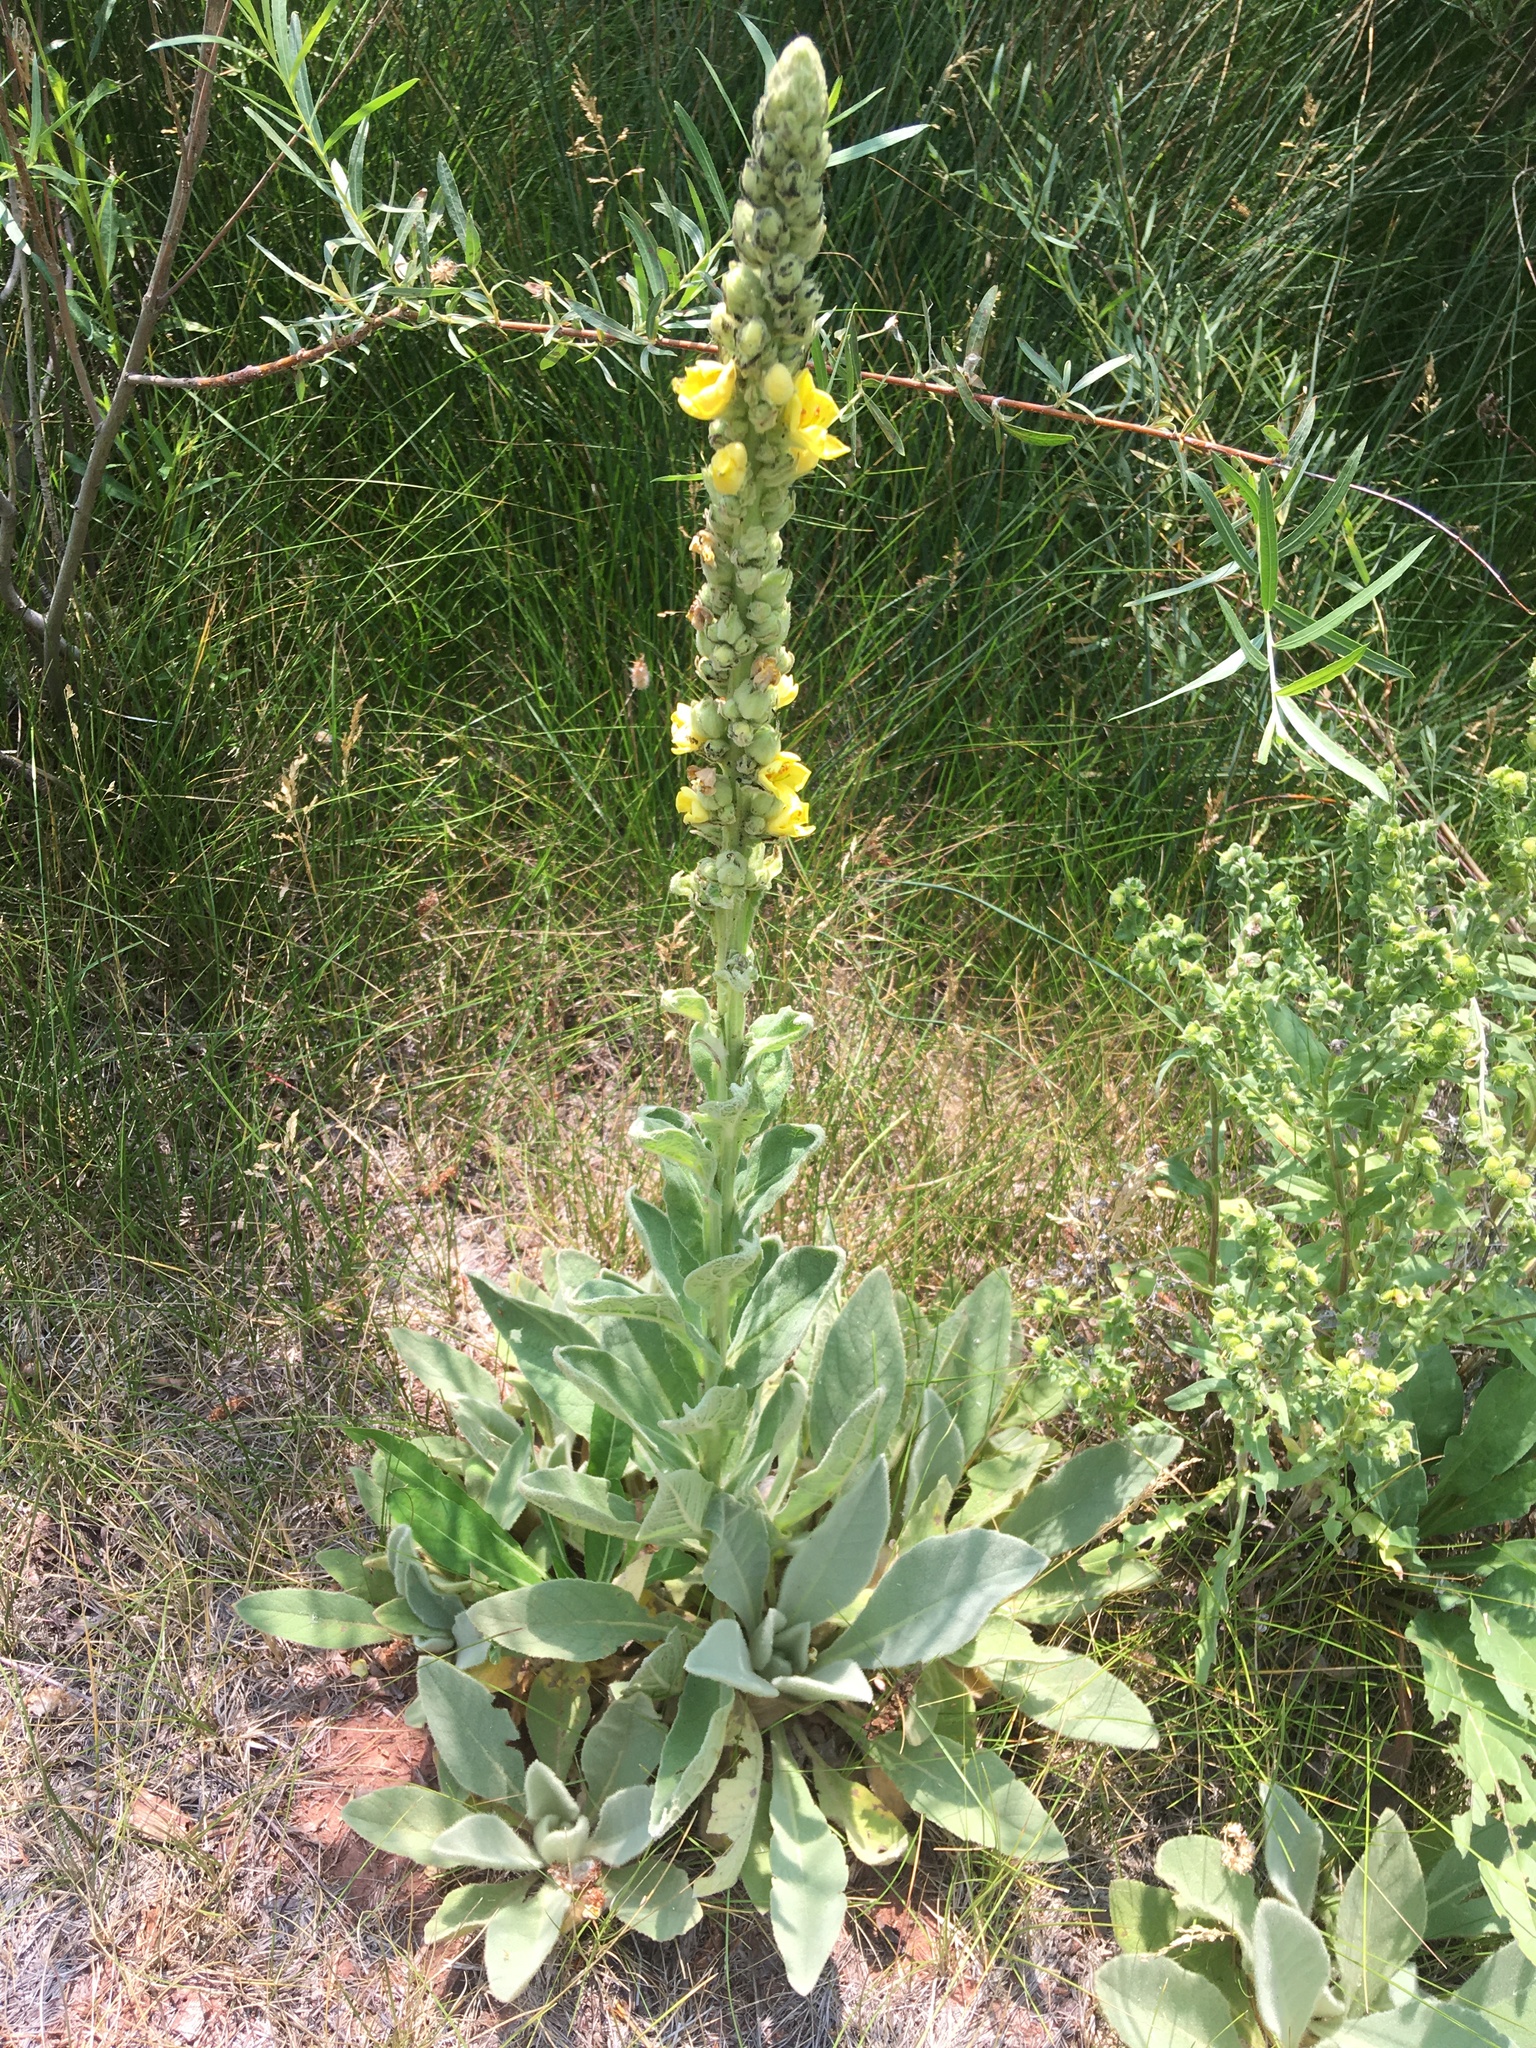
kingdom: Plantae
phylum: Tracheophyta
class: Magnoliopsida
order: Lamiales
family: Scrophulariaceae
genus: Verbascum
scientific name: Verbascum thapsus
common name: Common mullein
